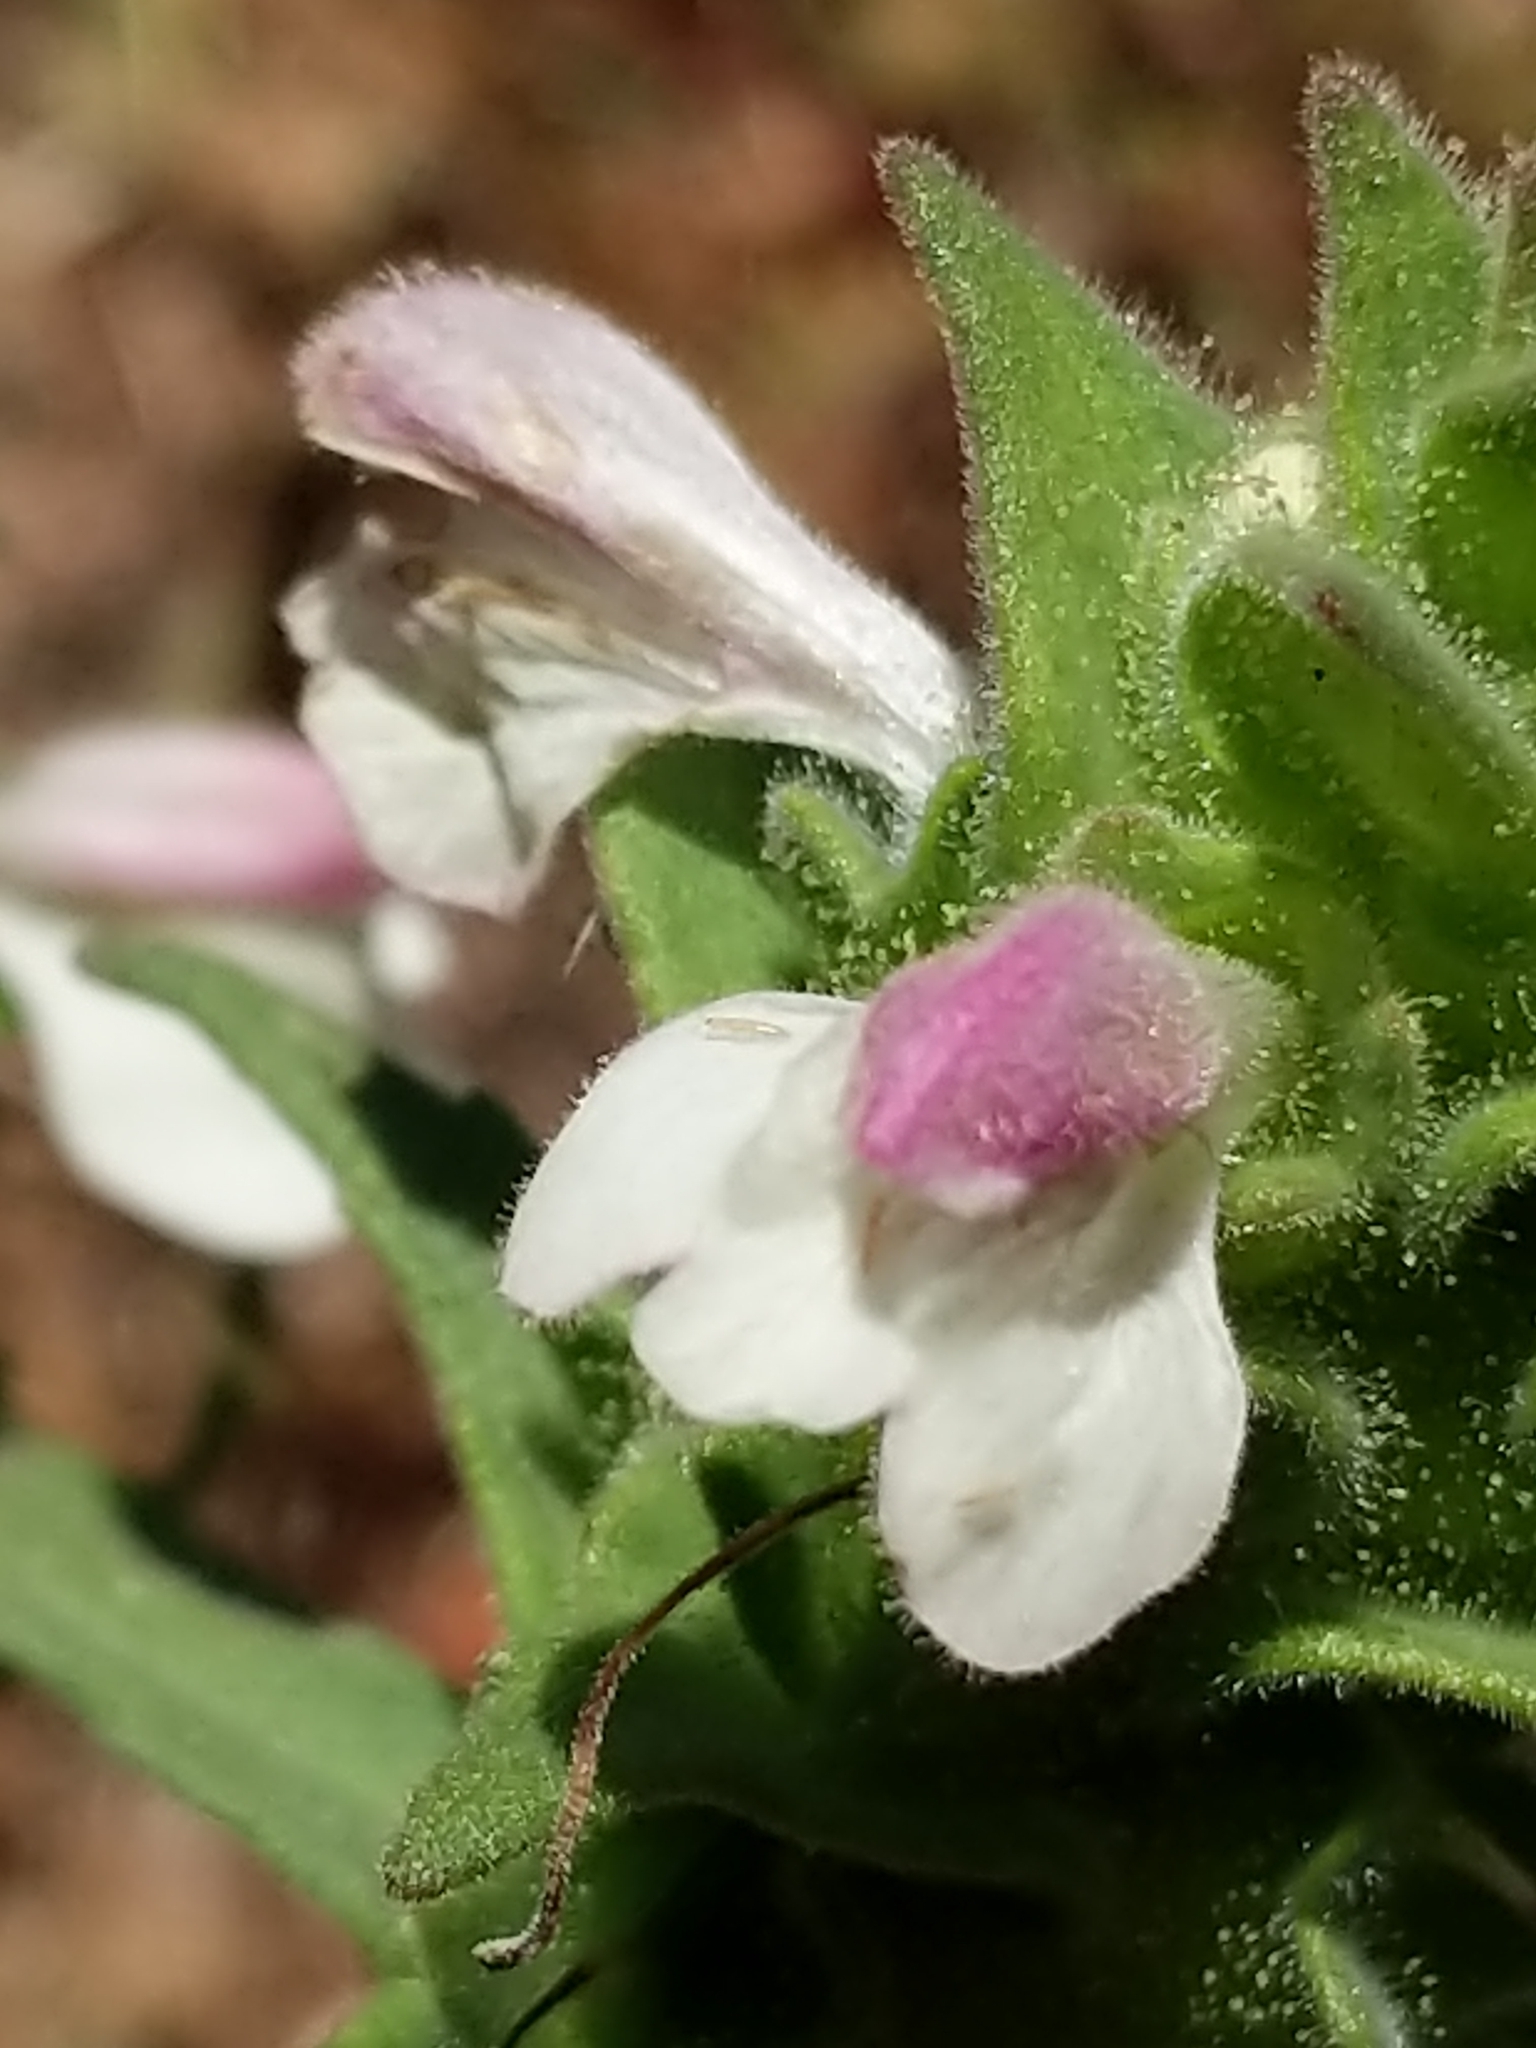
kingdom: Plantae
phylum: Tracheophyta
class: Magnoliopsida
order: Lamiales
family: Orobanchaceae
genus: Bellardia
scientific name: Bellardia trixago
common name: Mediterranean lineseed
